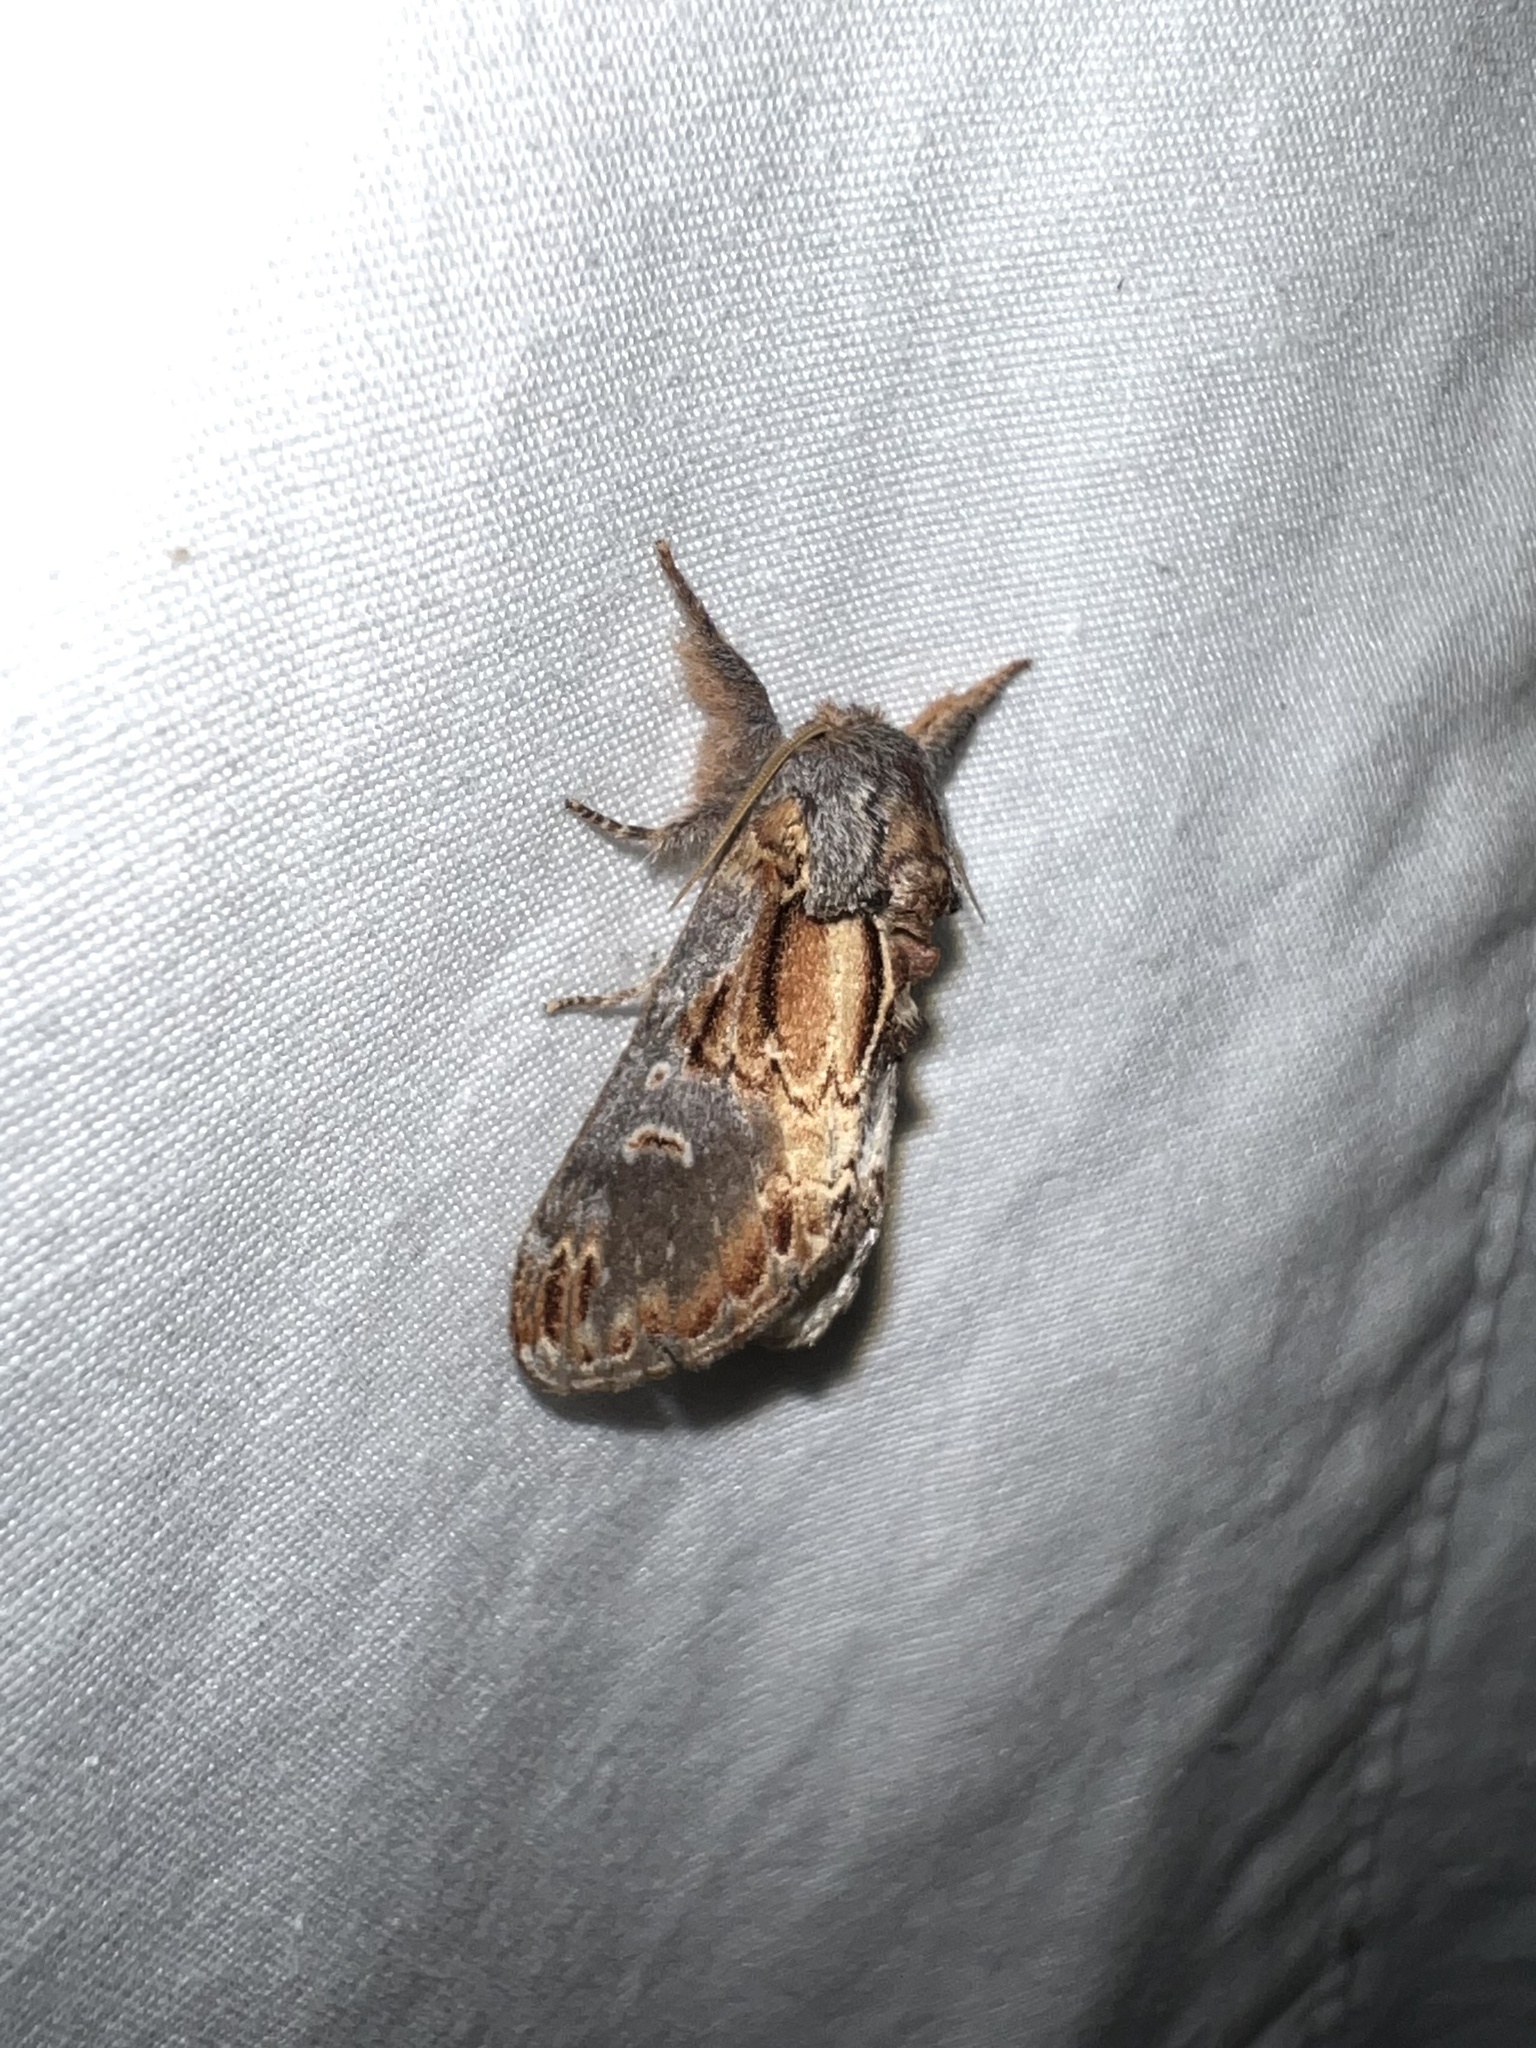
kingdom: Animalia
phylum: Arthropoda
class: Insecta
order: Lepidoptera
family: Notodontidae
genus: Notodonta
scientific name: Notodonta scitipennis
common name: Finned-willow prominent moth
